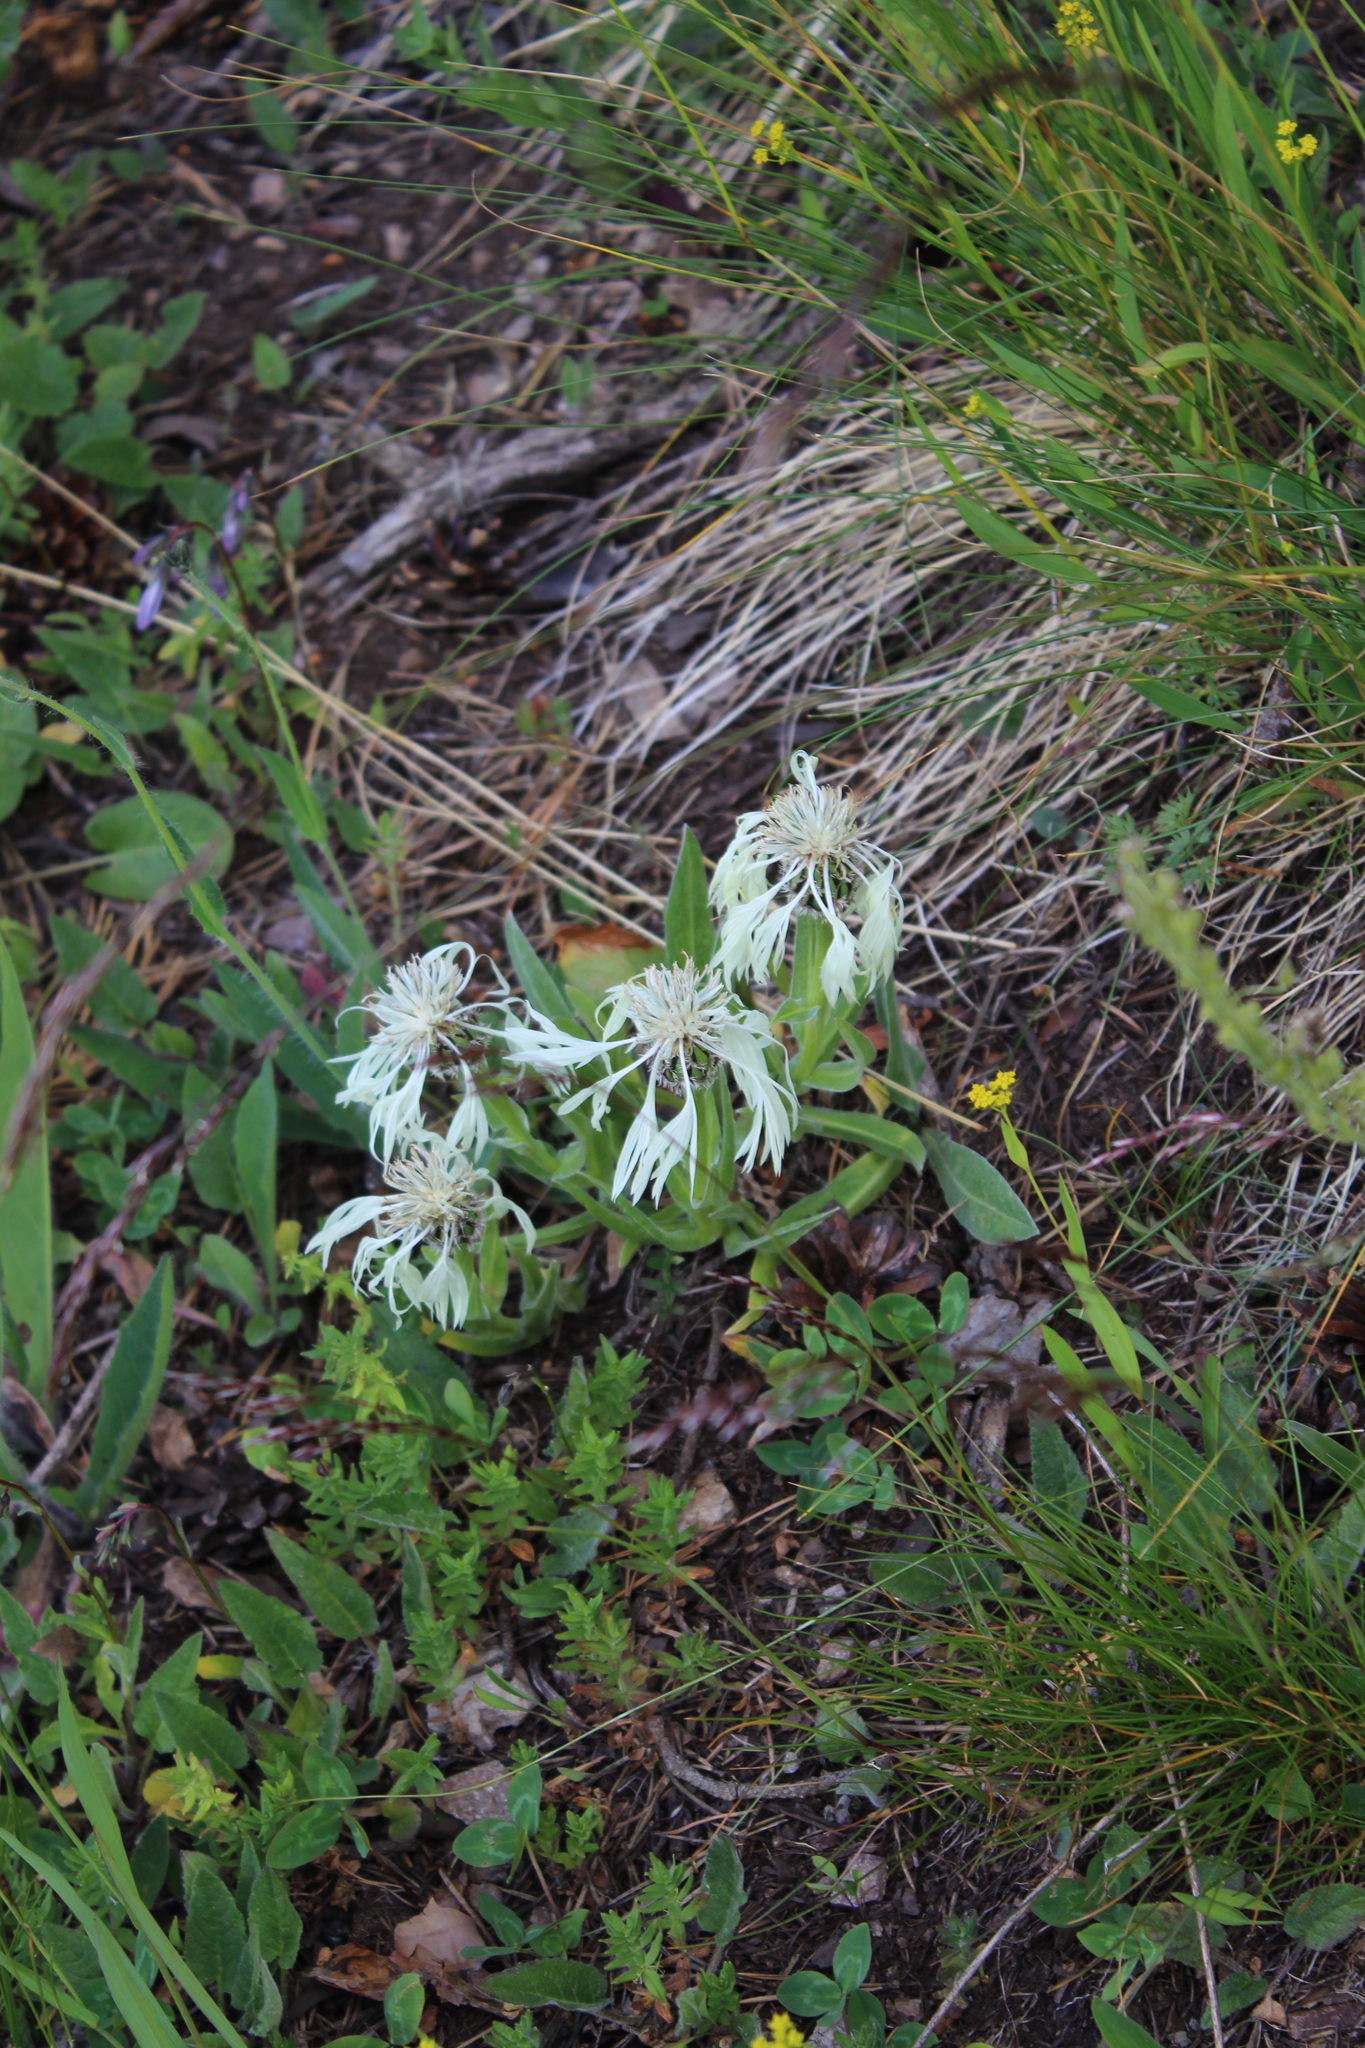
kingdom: Plantae
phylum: Tracheophyta
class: Magnoliopsida
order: Asterales
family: Asteraceae
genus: Centaurea
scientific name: Centaurea cheiranthifolia
